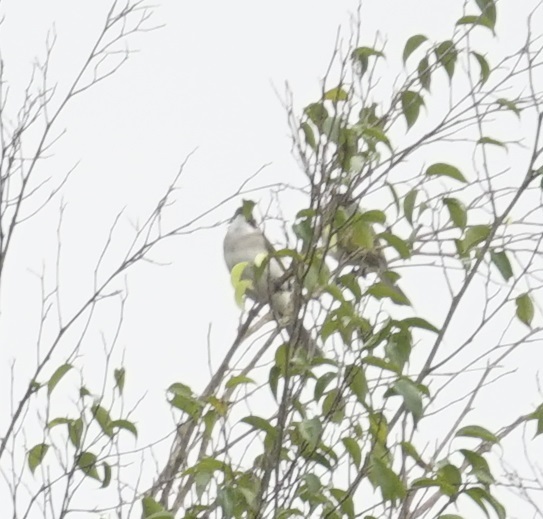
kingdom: Animalia
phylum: Chordata
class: Aves
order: Passeriformes
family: Pycnonotidae
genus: Pycnonotus
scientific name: Pycnonotus sinensis
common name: Light-vented bulbul
